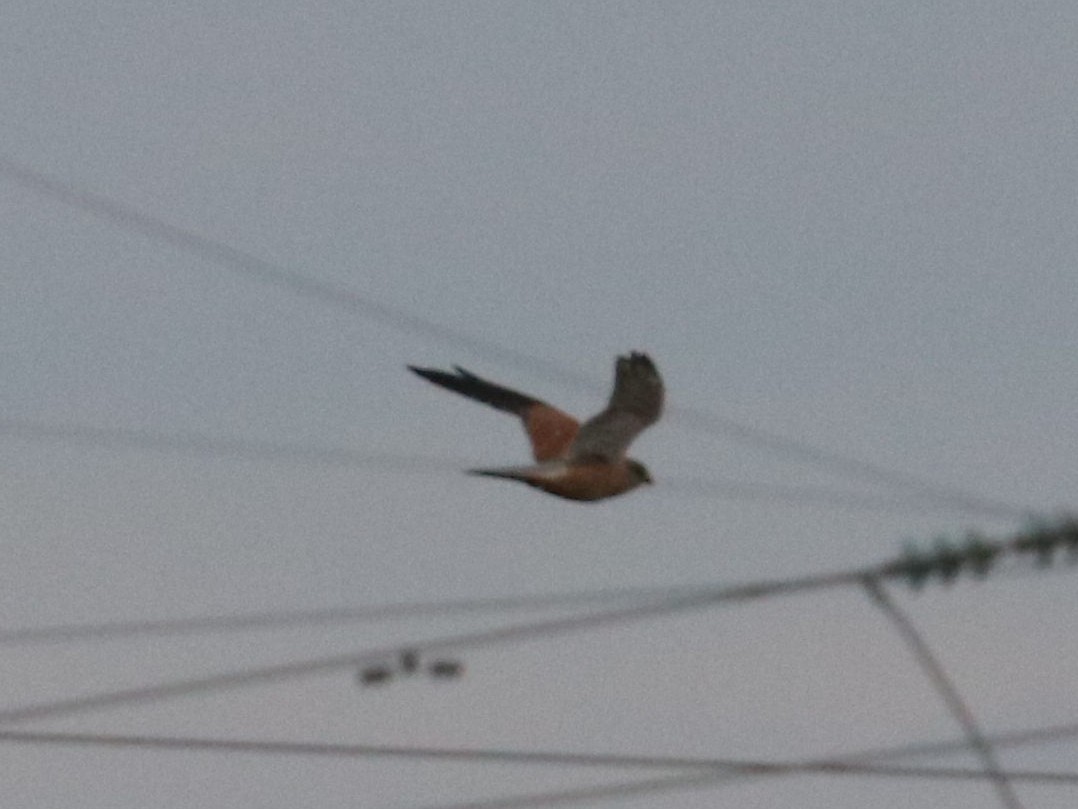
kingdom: Animalia
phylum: Chordata
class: Aves
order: Falconiformes
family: Falconidae
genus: Falco
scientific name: Falco tinnunculus
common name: Common kestrel
